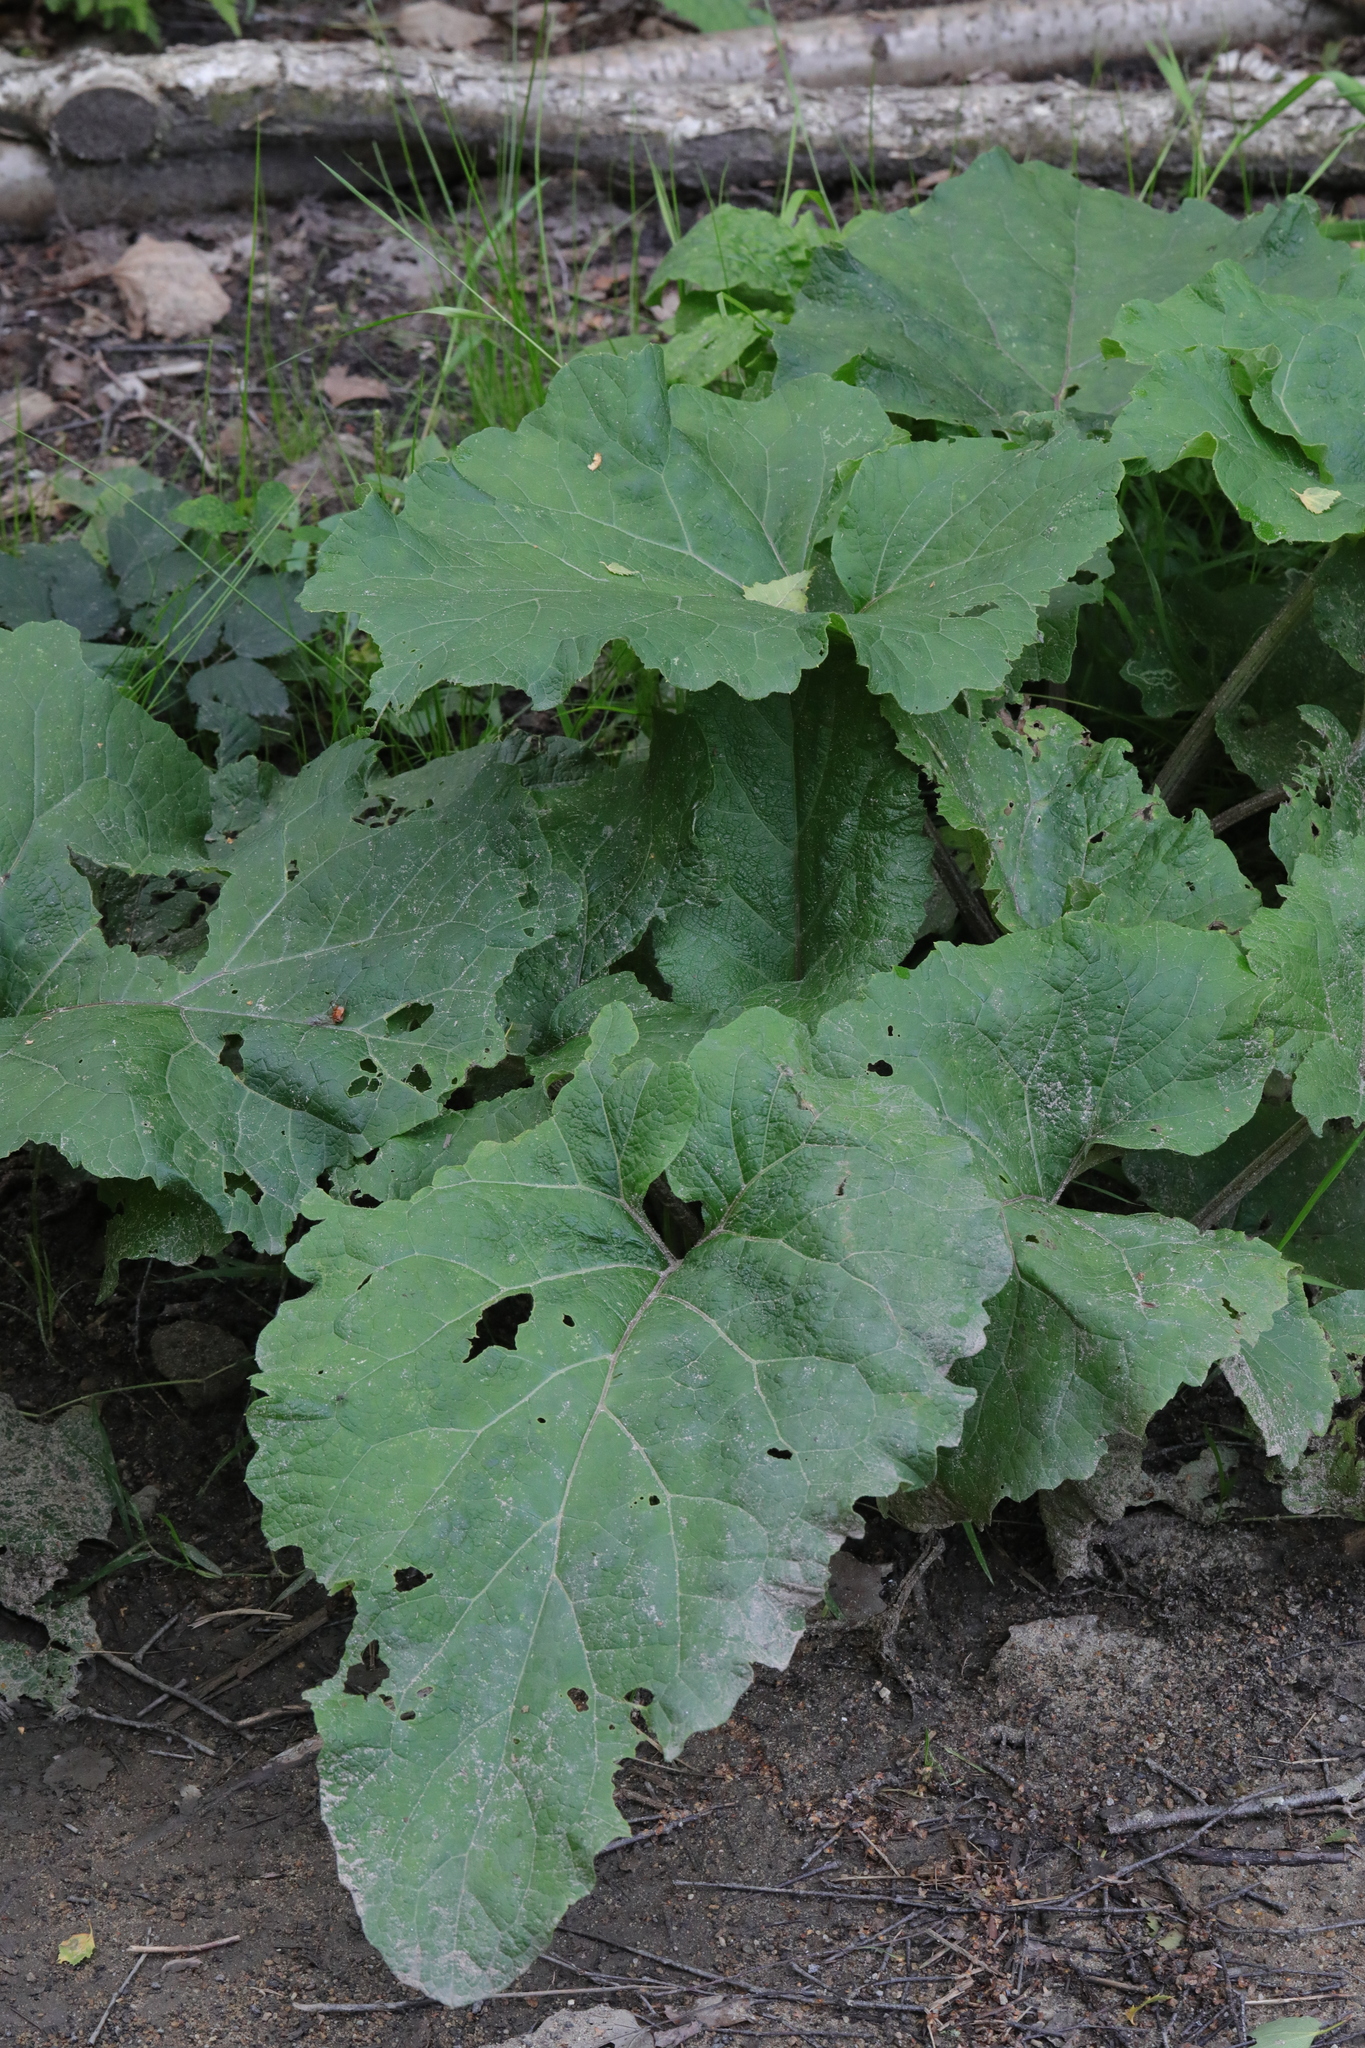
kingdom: Plantae
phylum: Tracheophyta
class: Magnoliopsida
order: Asterales
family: Asteraceae
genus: Arctium
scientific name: Arctium minus
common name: Lesser burdock
